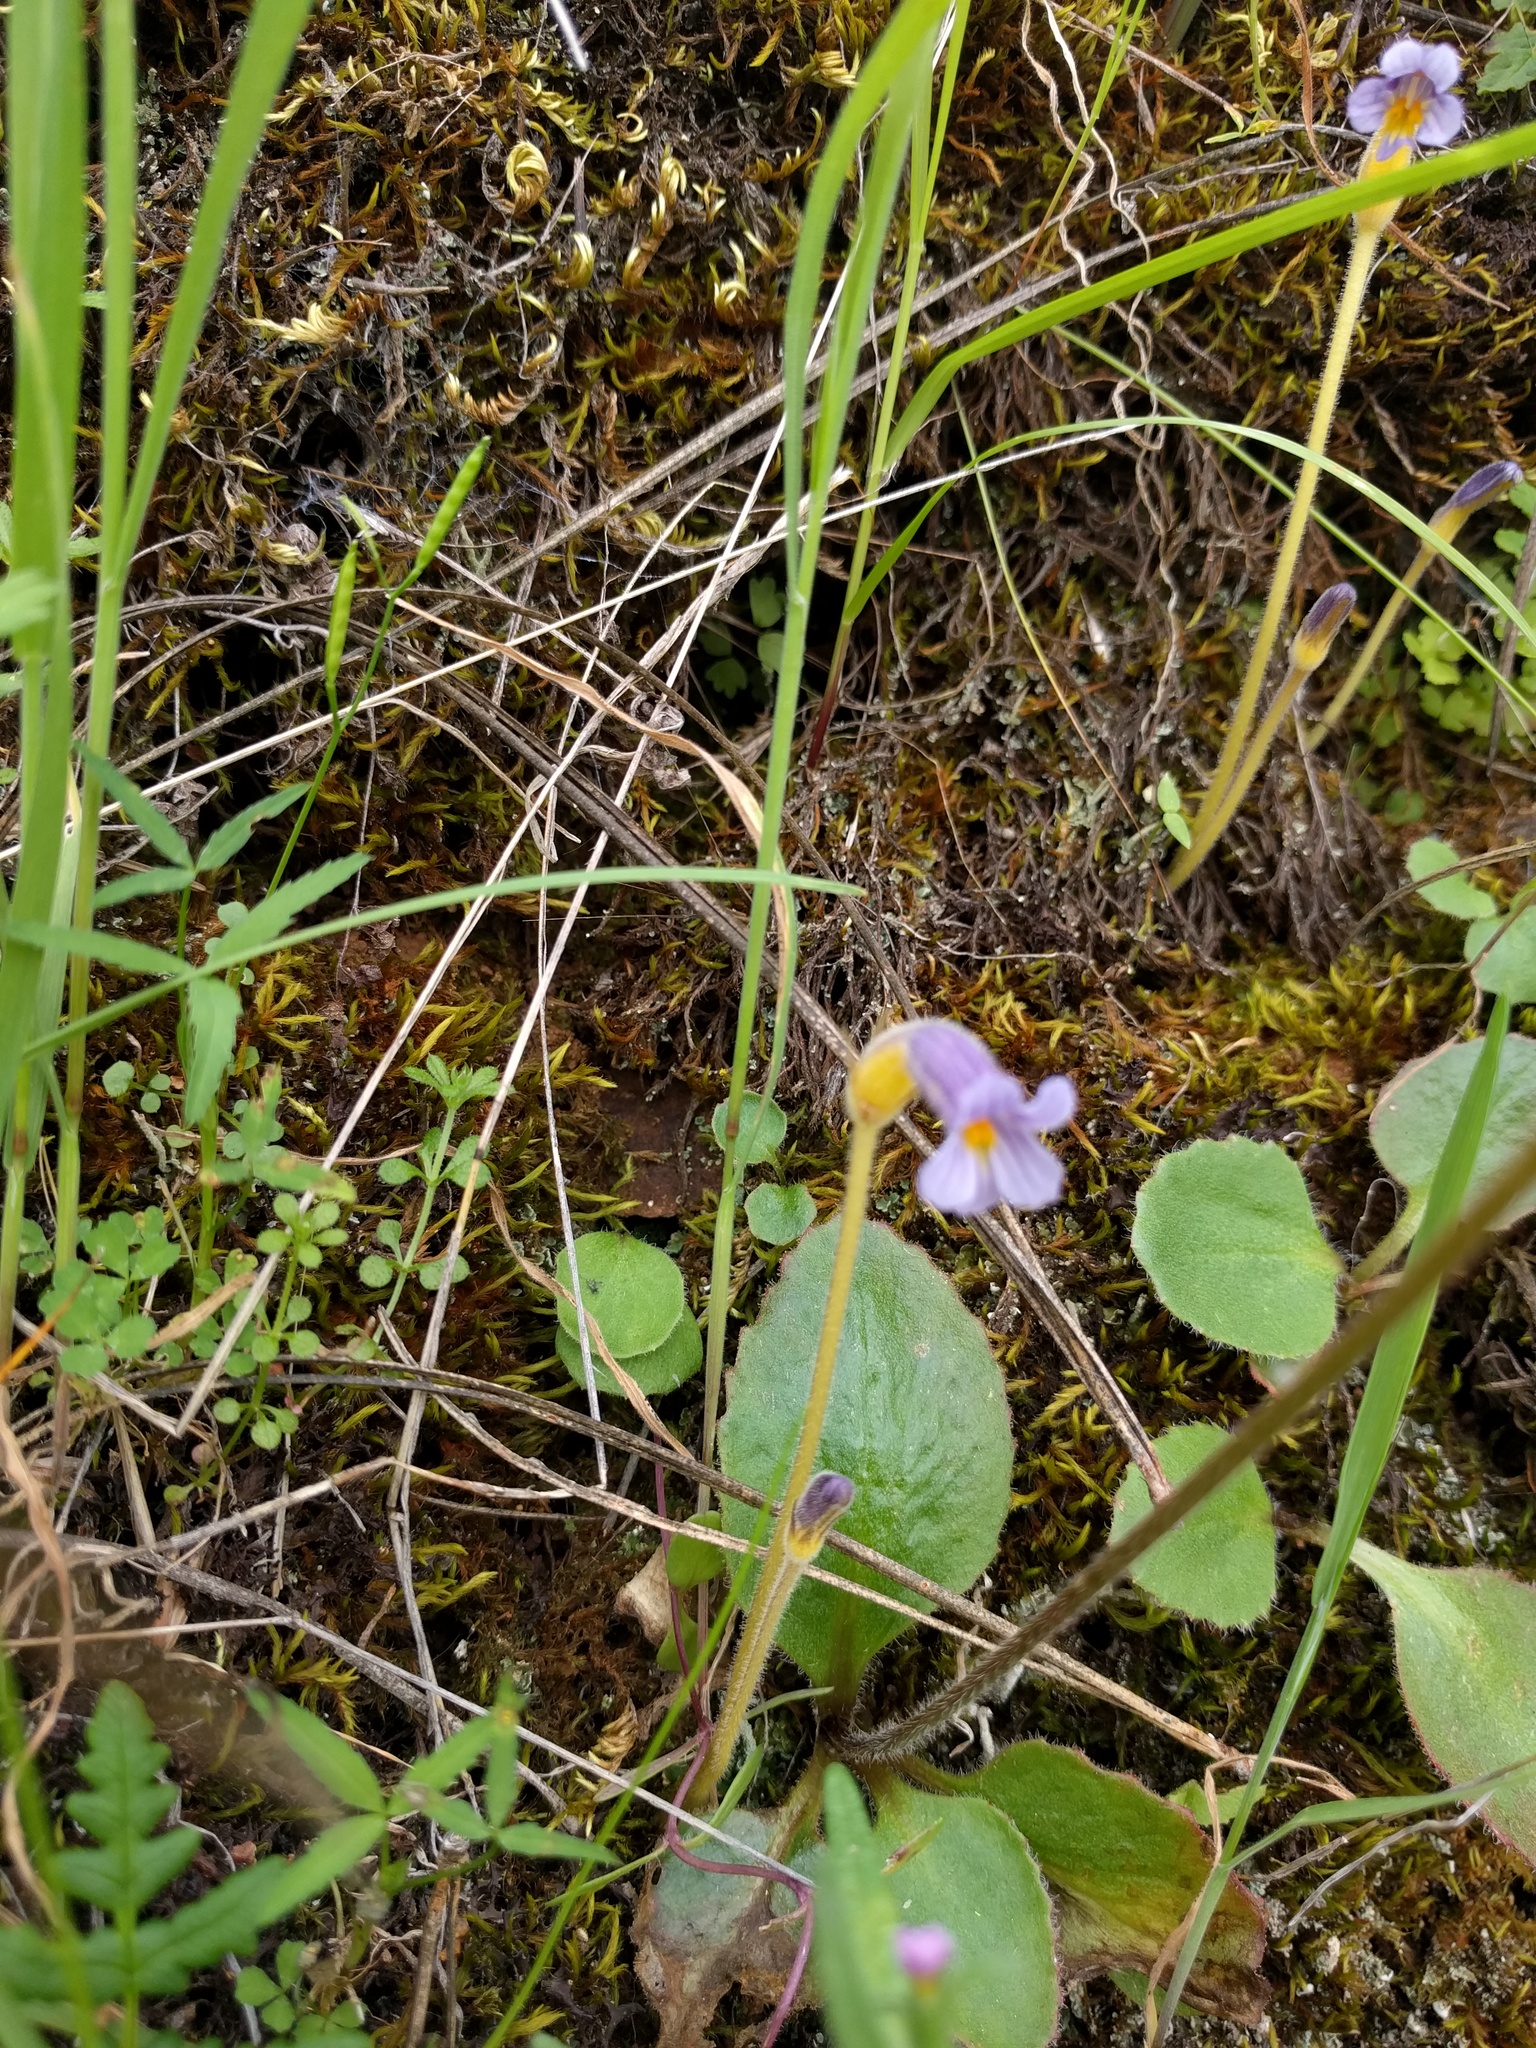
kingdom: Plantae
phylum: Tracheophyta
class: Magnoliopsida
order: Lamiales
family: Orobanchaceae
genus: Aphyllon
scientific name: Aphyllon uniflorum
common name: One-flowered broomrape
